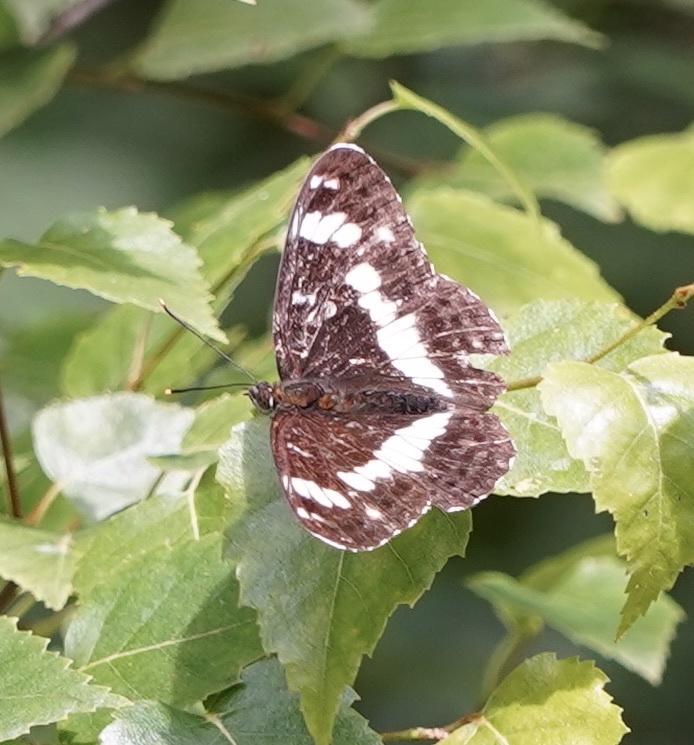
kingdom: Animalia
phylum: Arthropoda
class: Insecta
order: Lepidoptera
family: Nymphalidae
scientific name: Nymphalidae
